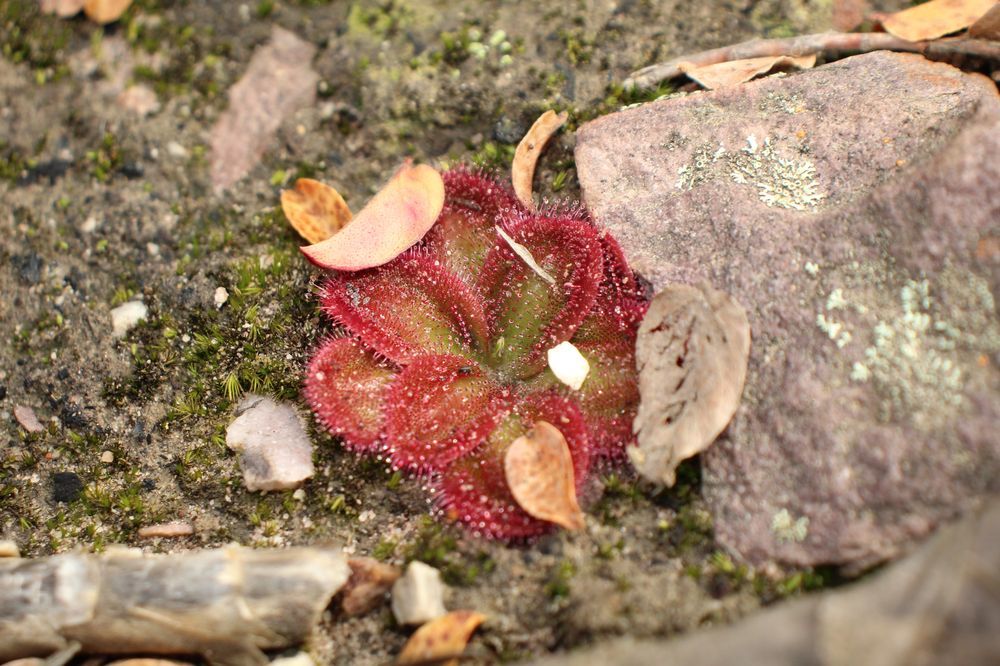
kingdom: Plantae
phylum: Tracheophyta
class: Magnoliopsida
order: Caryophyllales
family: Droseraceae
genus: Drosera
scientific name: Drosera erythrorhiza
